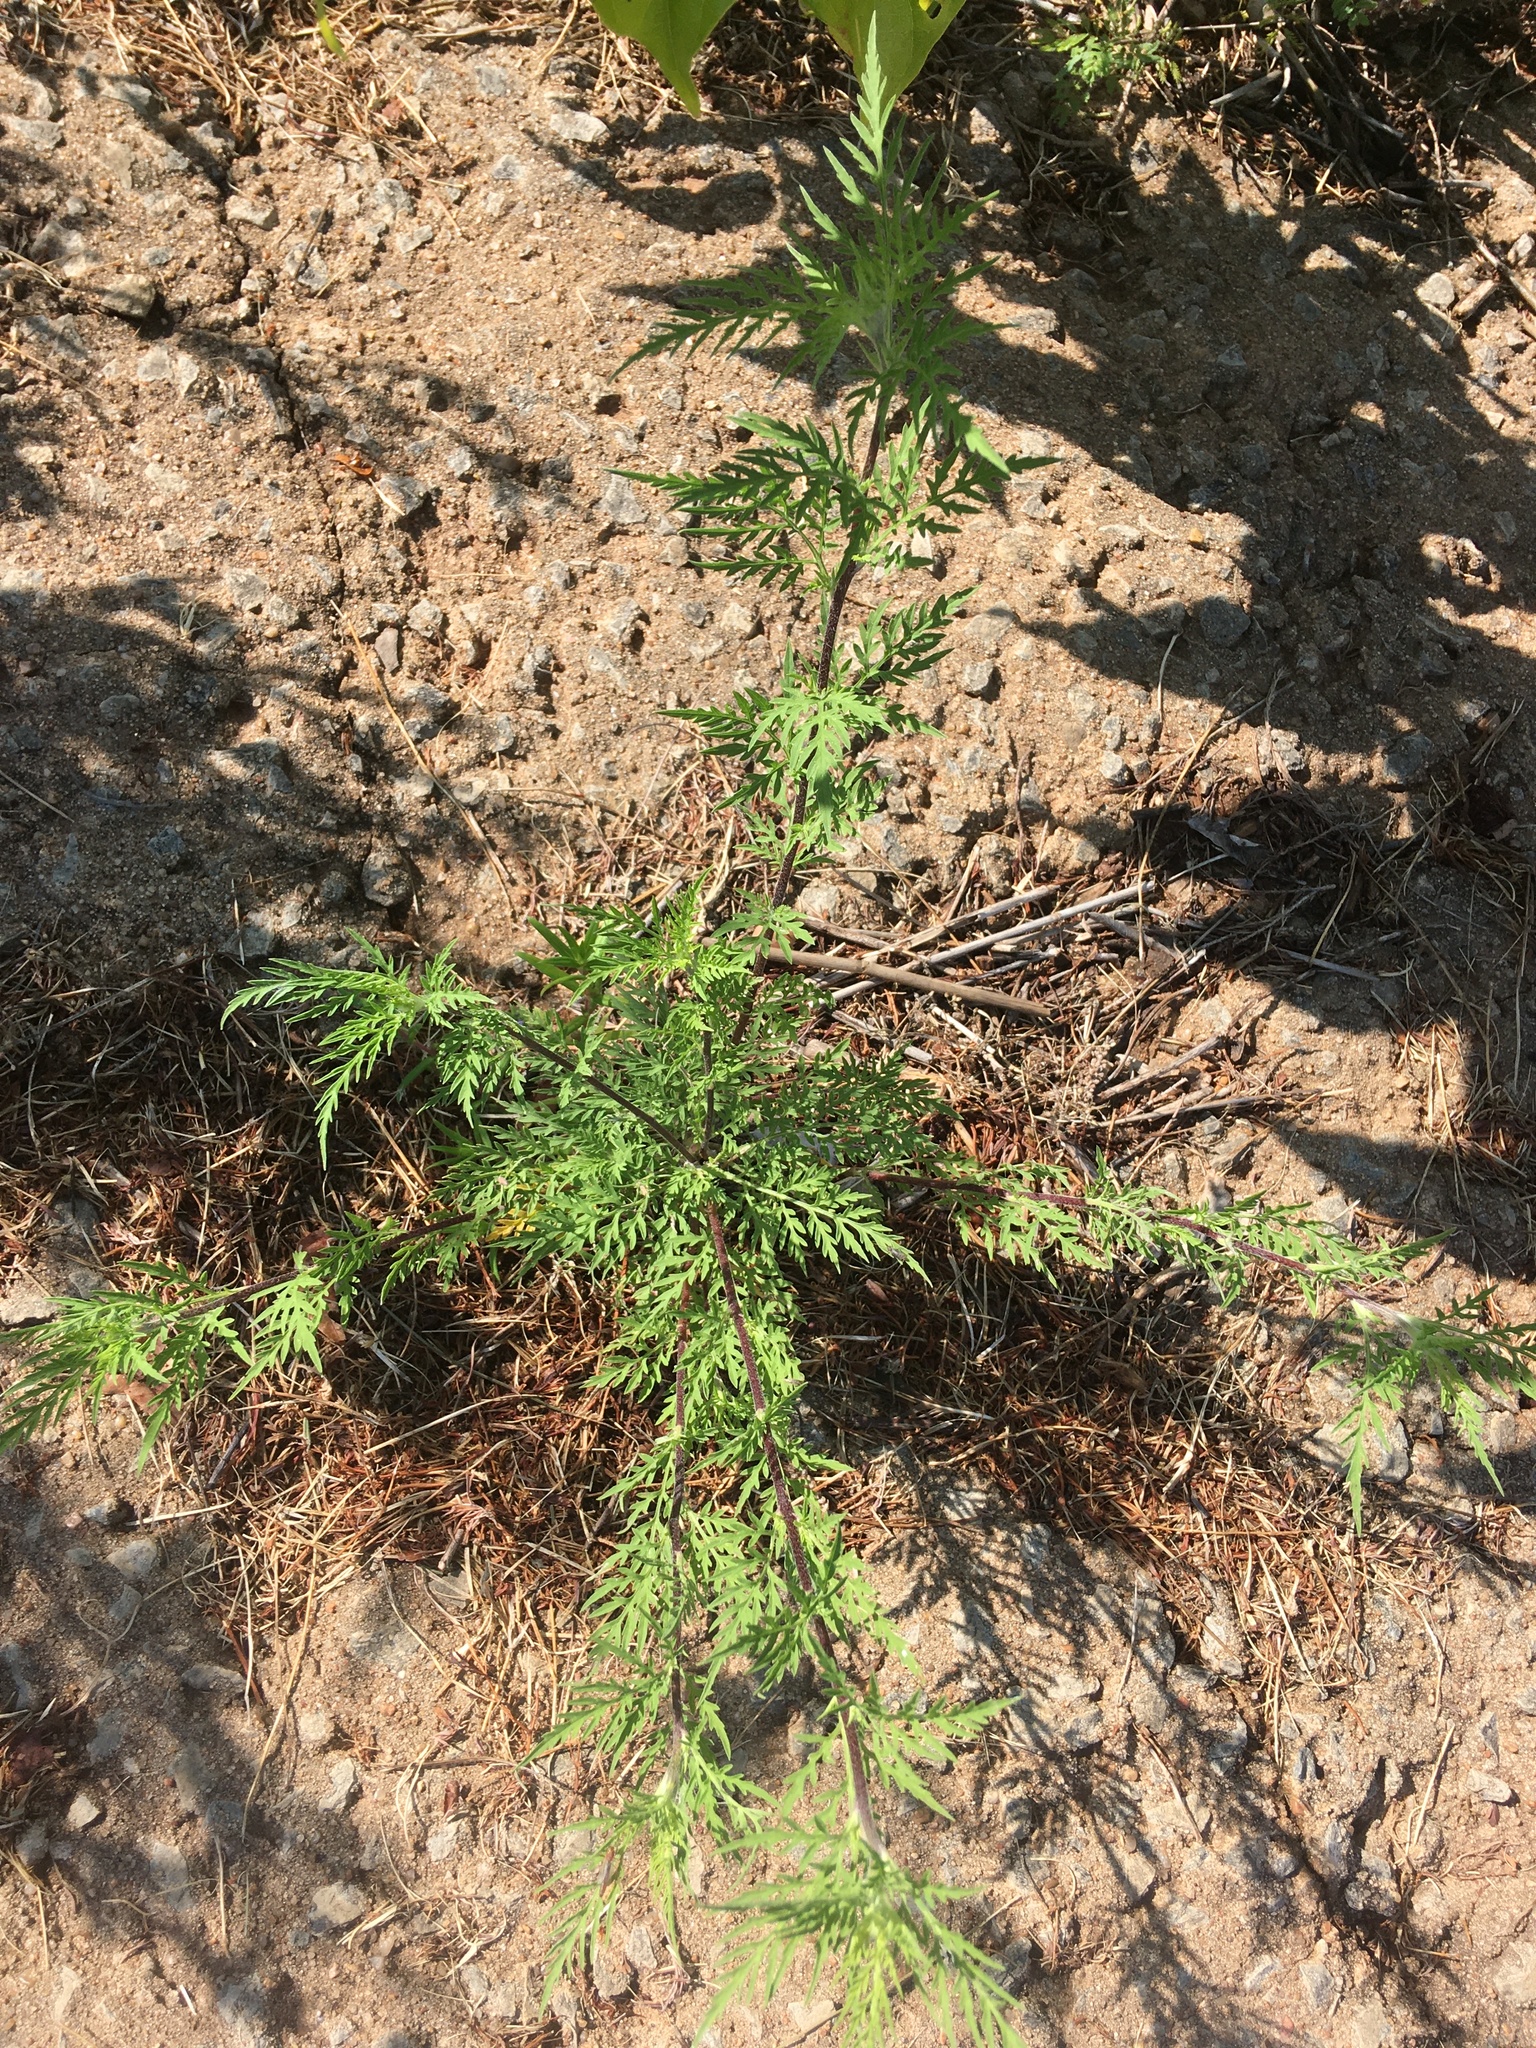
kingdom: Plantae
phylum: Tracheophyta
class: Magnoliopsida
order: Asterales
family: Asteraceae
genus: Ambrosia
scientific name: Ambrosia artemisiifolia
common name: Annual ragweed
